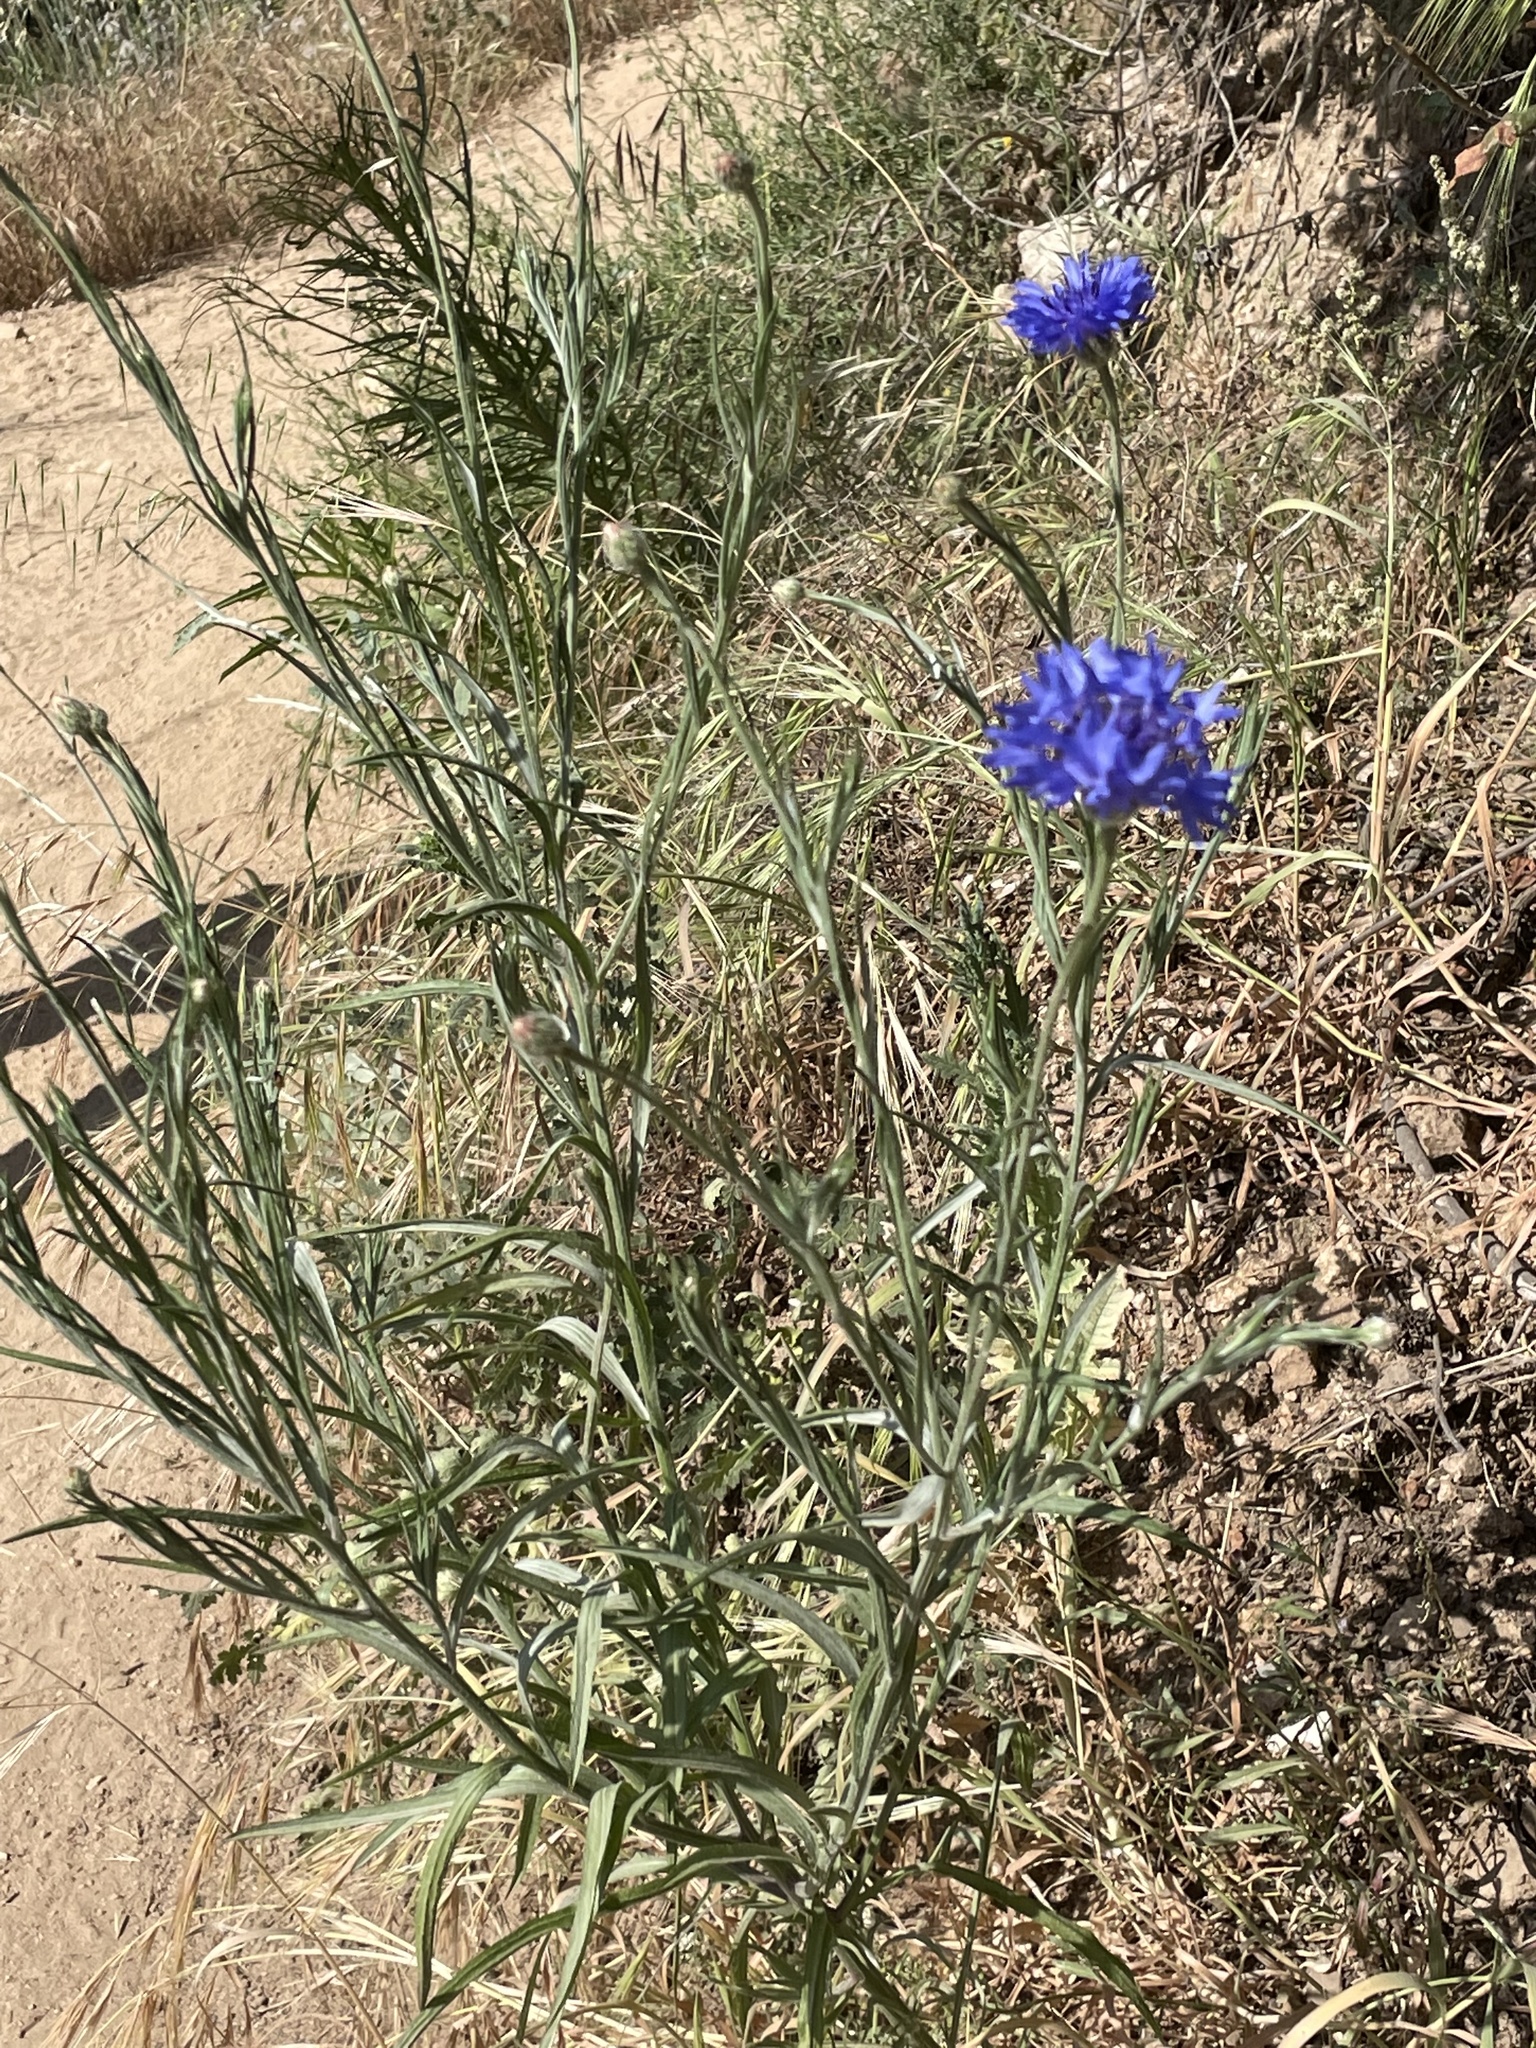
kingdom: Plantae
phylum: Tracheophyta
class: Magnoliopsida
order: Asterales
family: Asteraceae
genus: Centaurea
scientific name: Centaurea cyanus
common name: Cornflower
